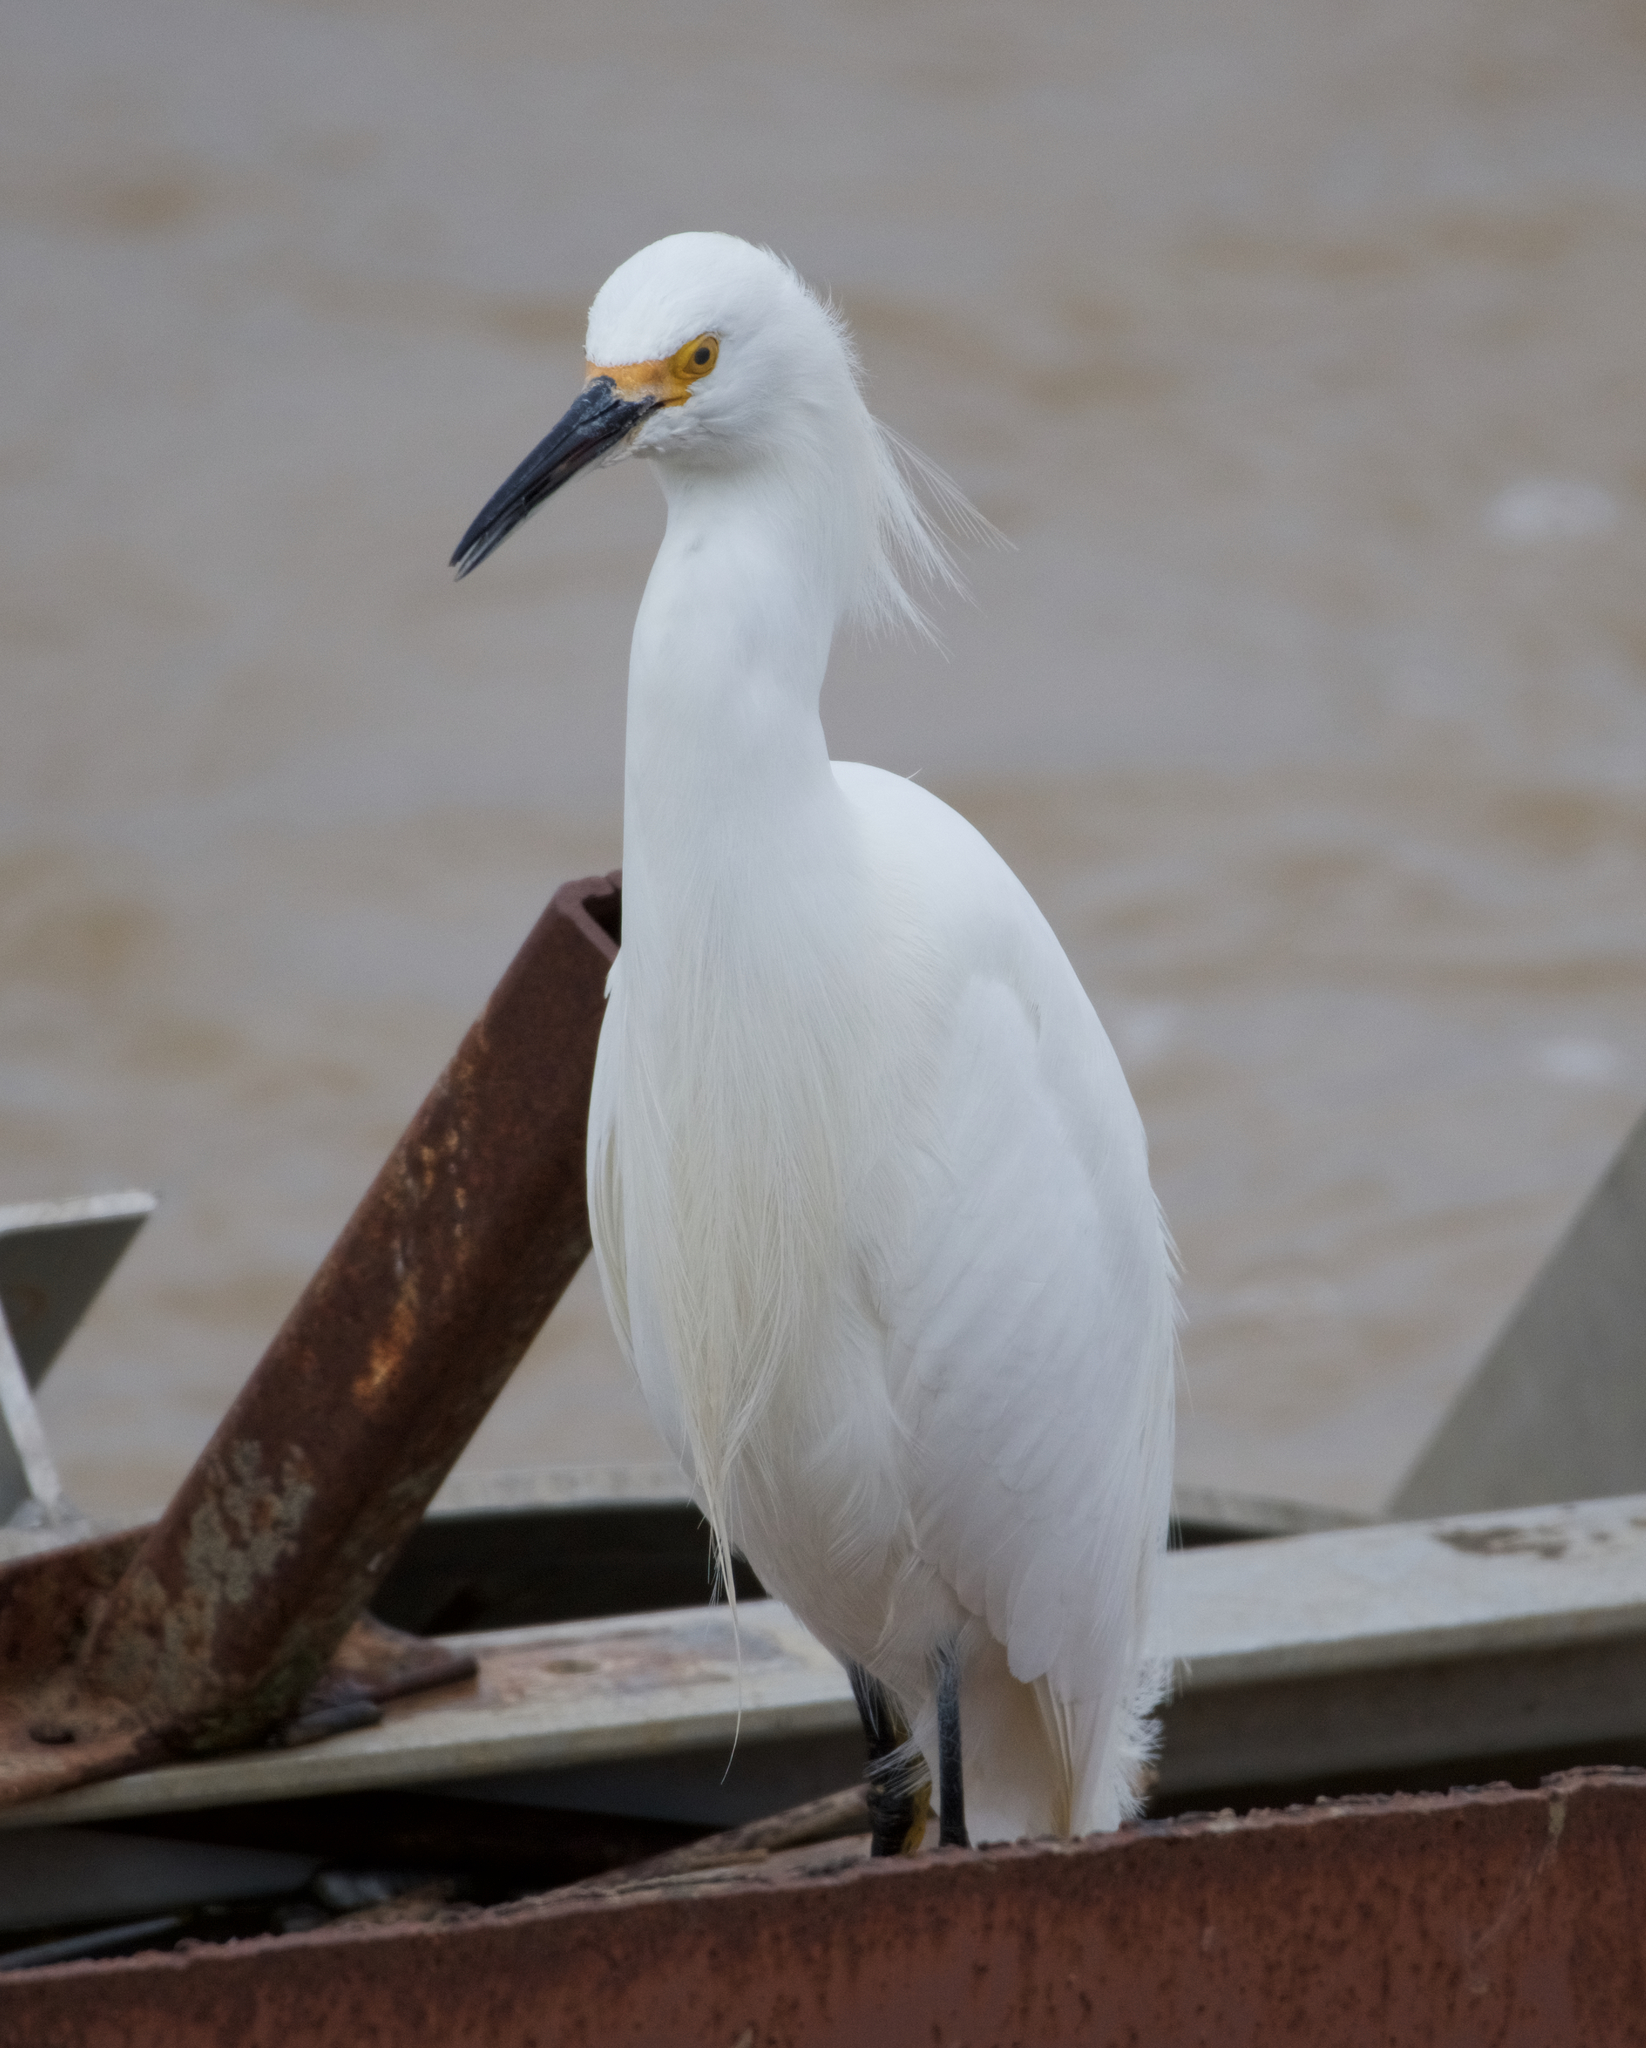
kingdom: Animalia
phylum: Chordata
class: Aves
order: Pelecaniformes
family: Ardeidae
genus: Egretta
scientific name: Egretta thula
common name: Snowy egret
